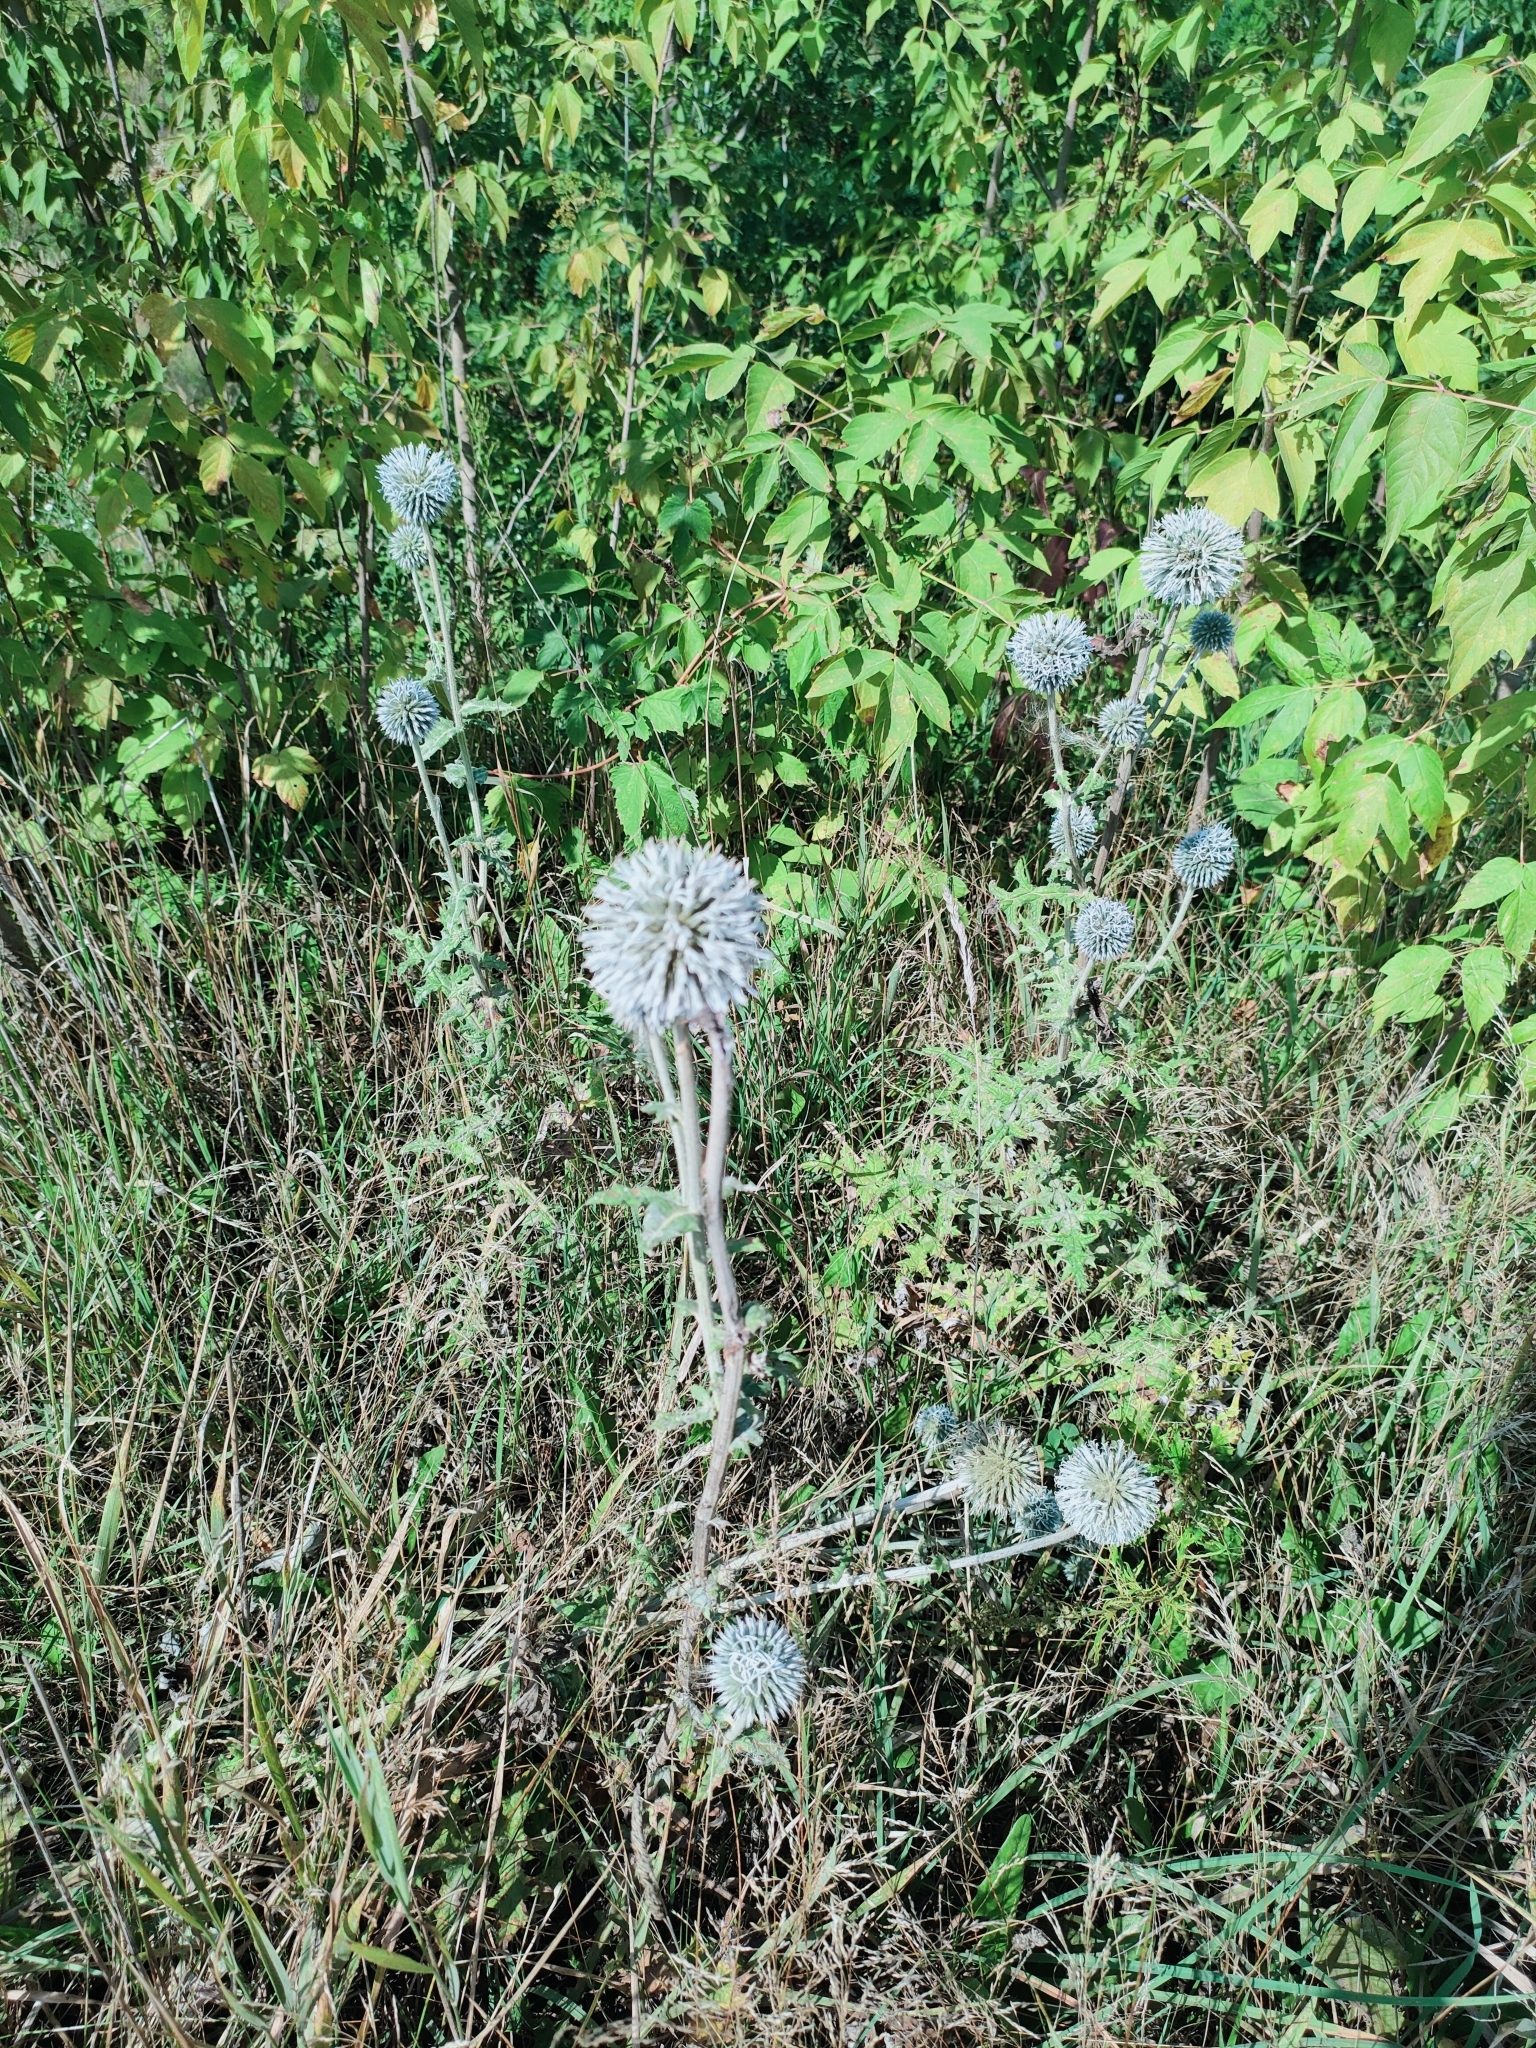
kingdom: Plantae
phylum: Tracheophyta
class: Magnoliopsida
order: Asterales
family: Asteraceae
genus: Echinops
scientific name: Echinops sphaerocephalus
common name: Glandular globe-thistle
